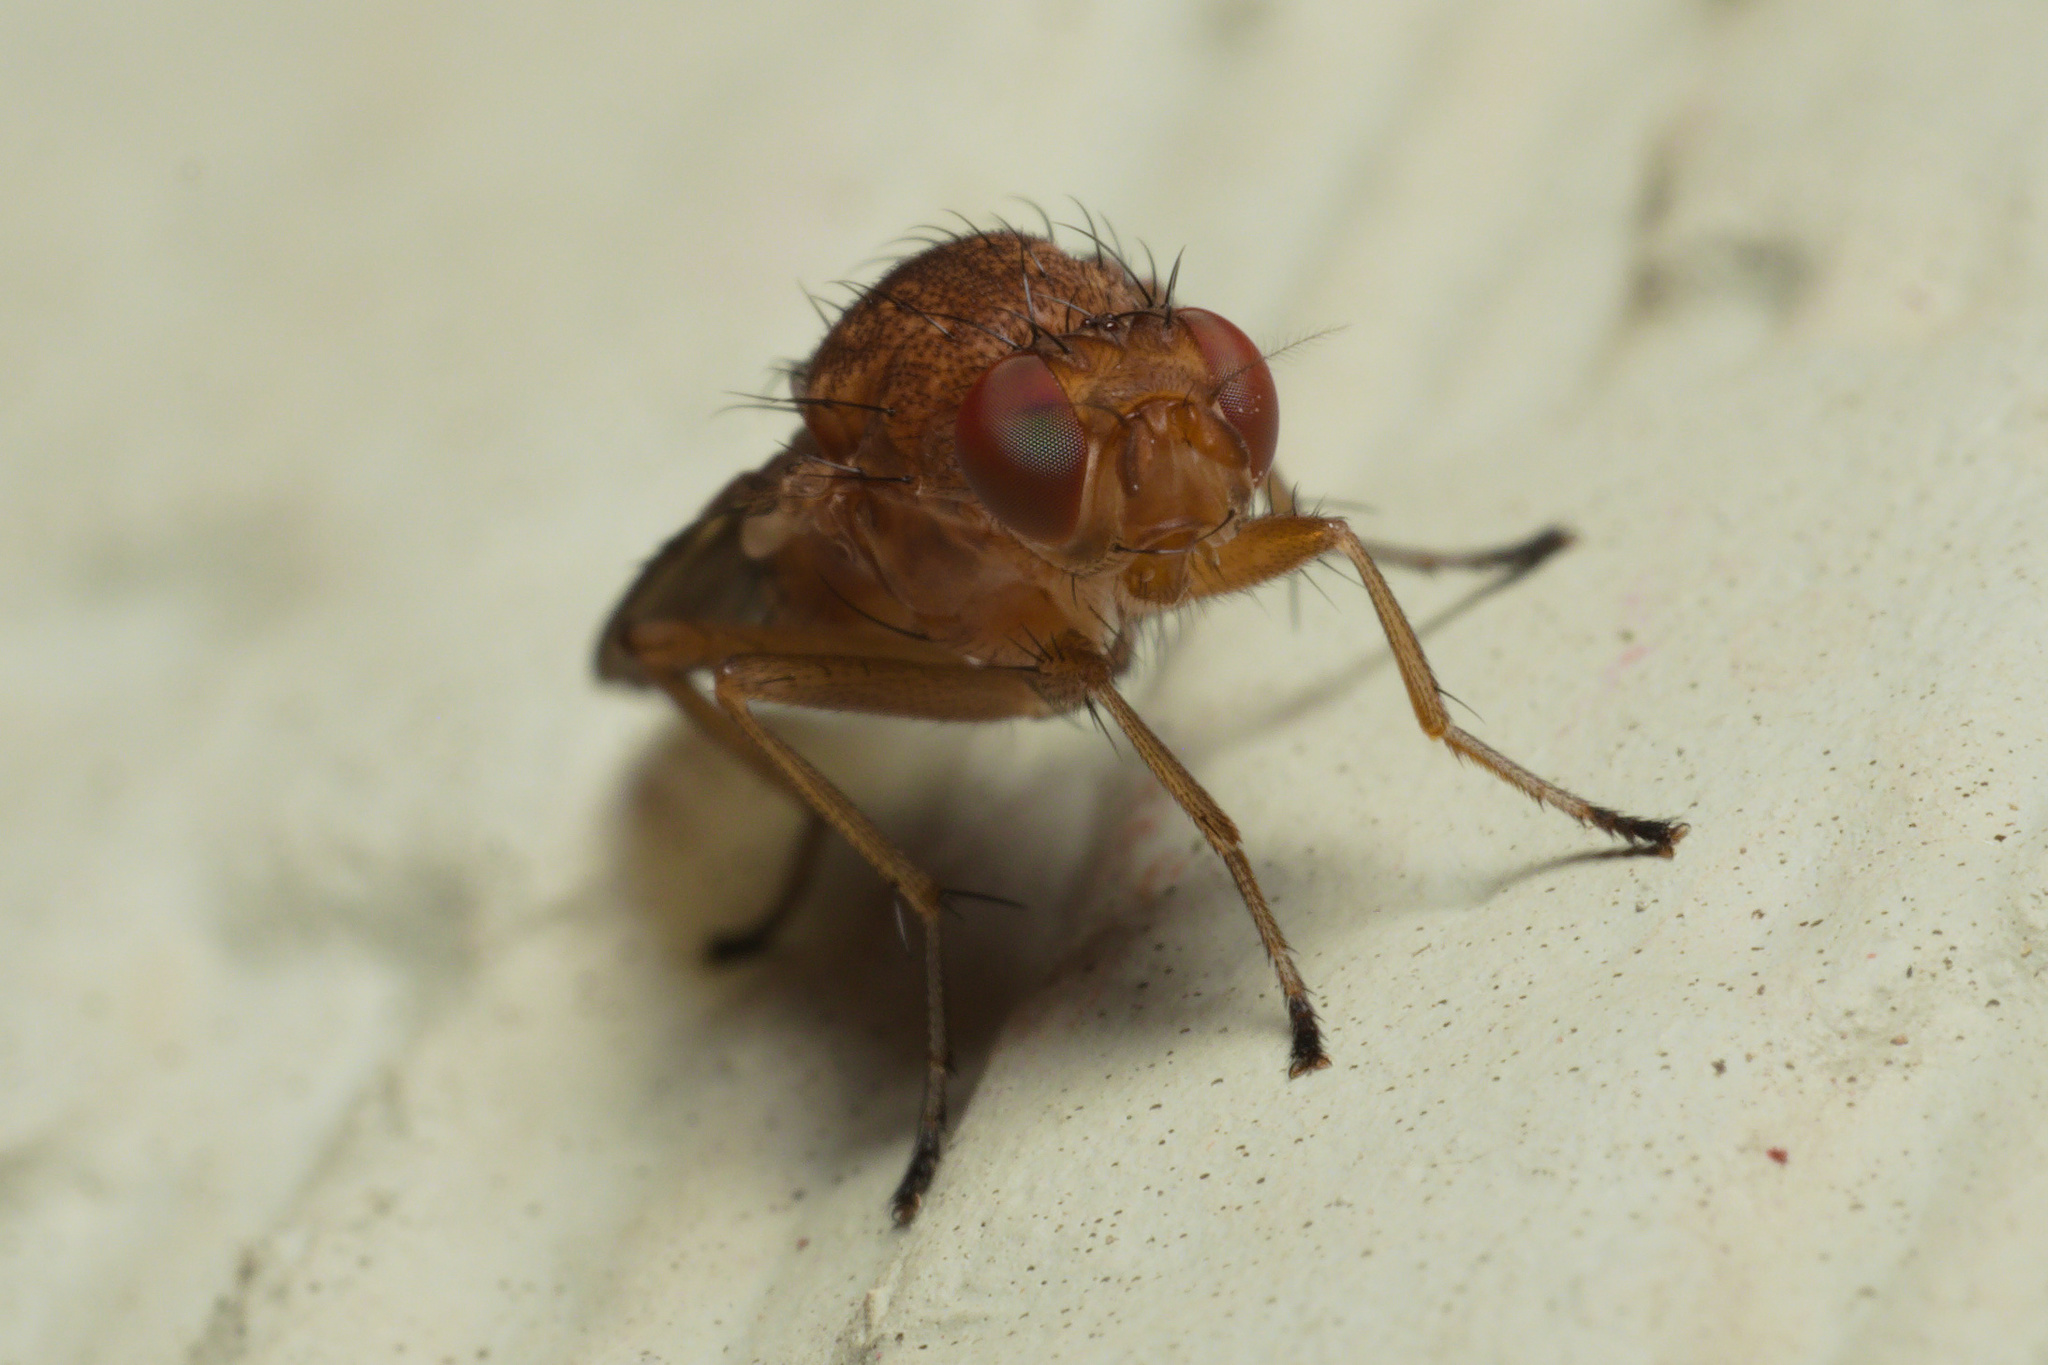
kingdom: Animalia
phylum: Arthropoda
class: Insecta
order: Diptera
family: Heleomyzidae
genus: Suillia
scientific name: Suillia quinquepunctata
